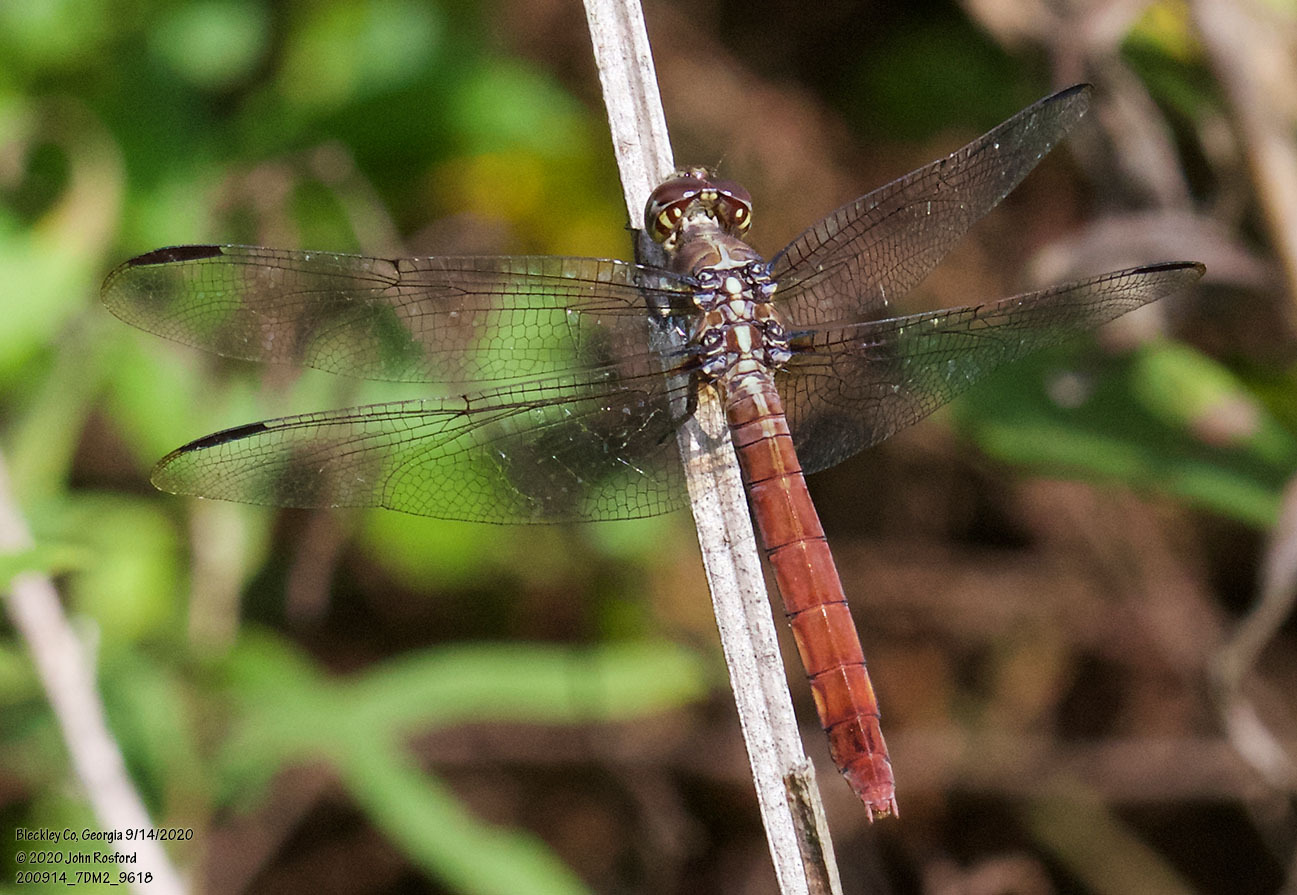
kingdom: Animalia
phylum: Arthropoda
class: Insecta
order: Odonata
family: Libellulidae
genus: Orthemis
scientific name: Orthemis ferruginea
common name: Roseate skimmer
